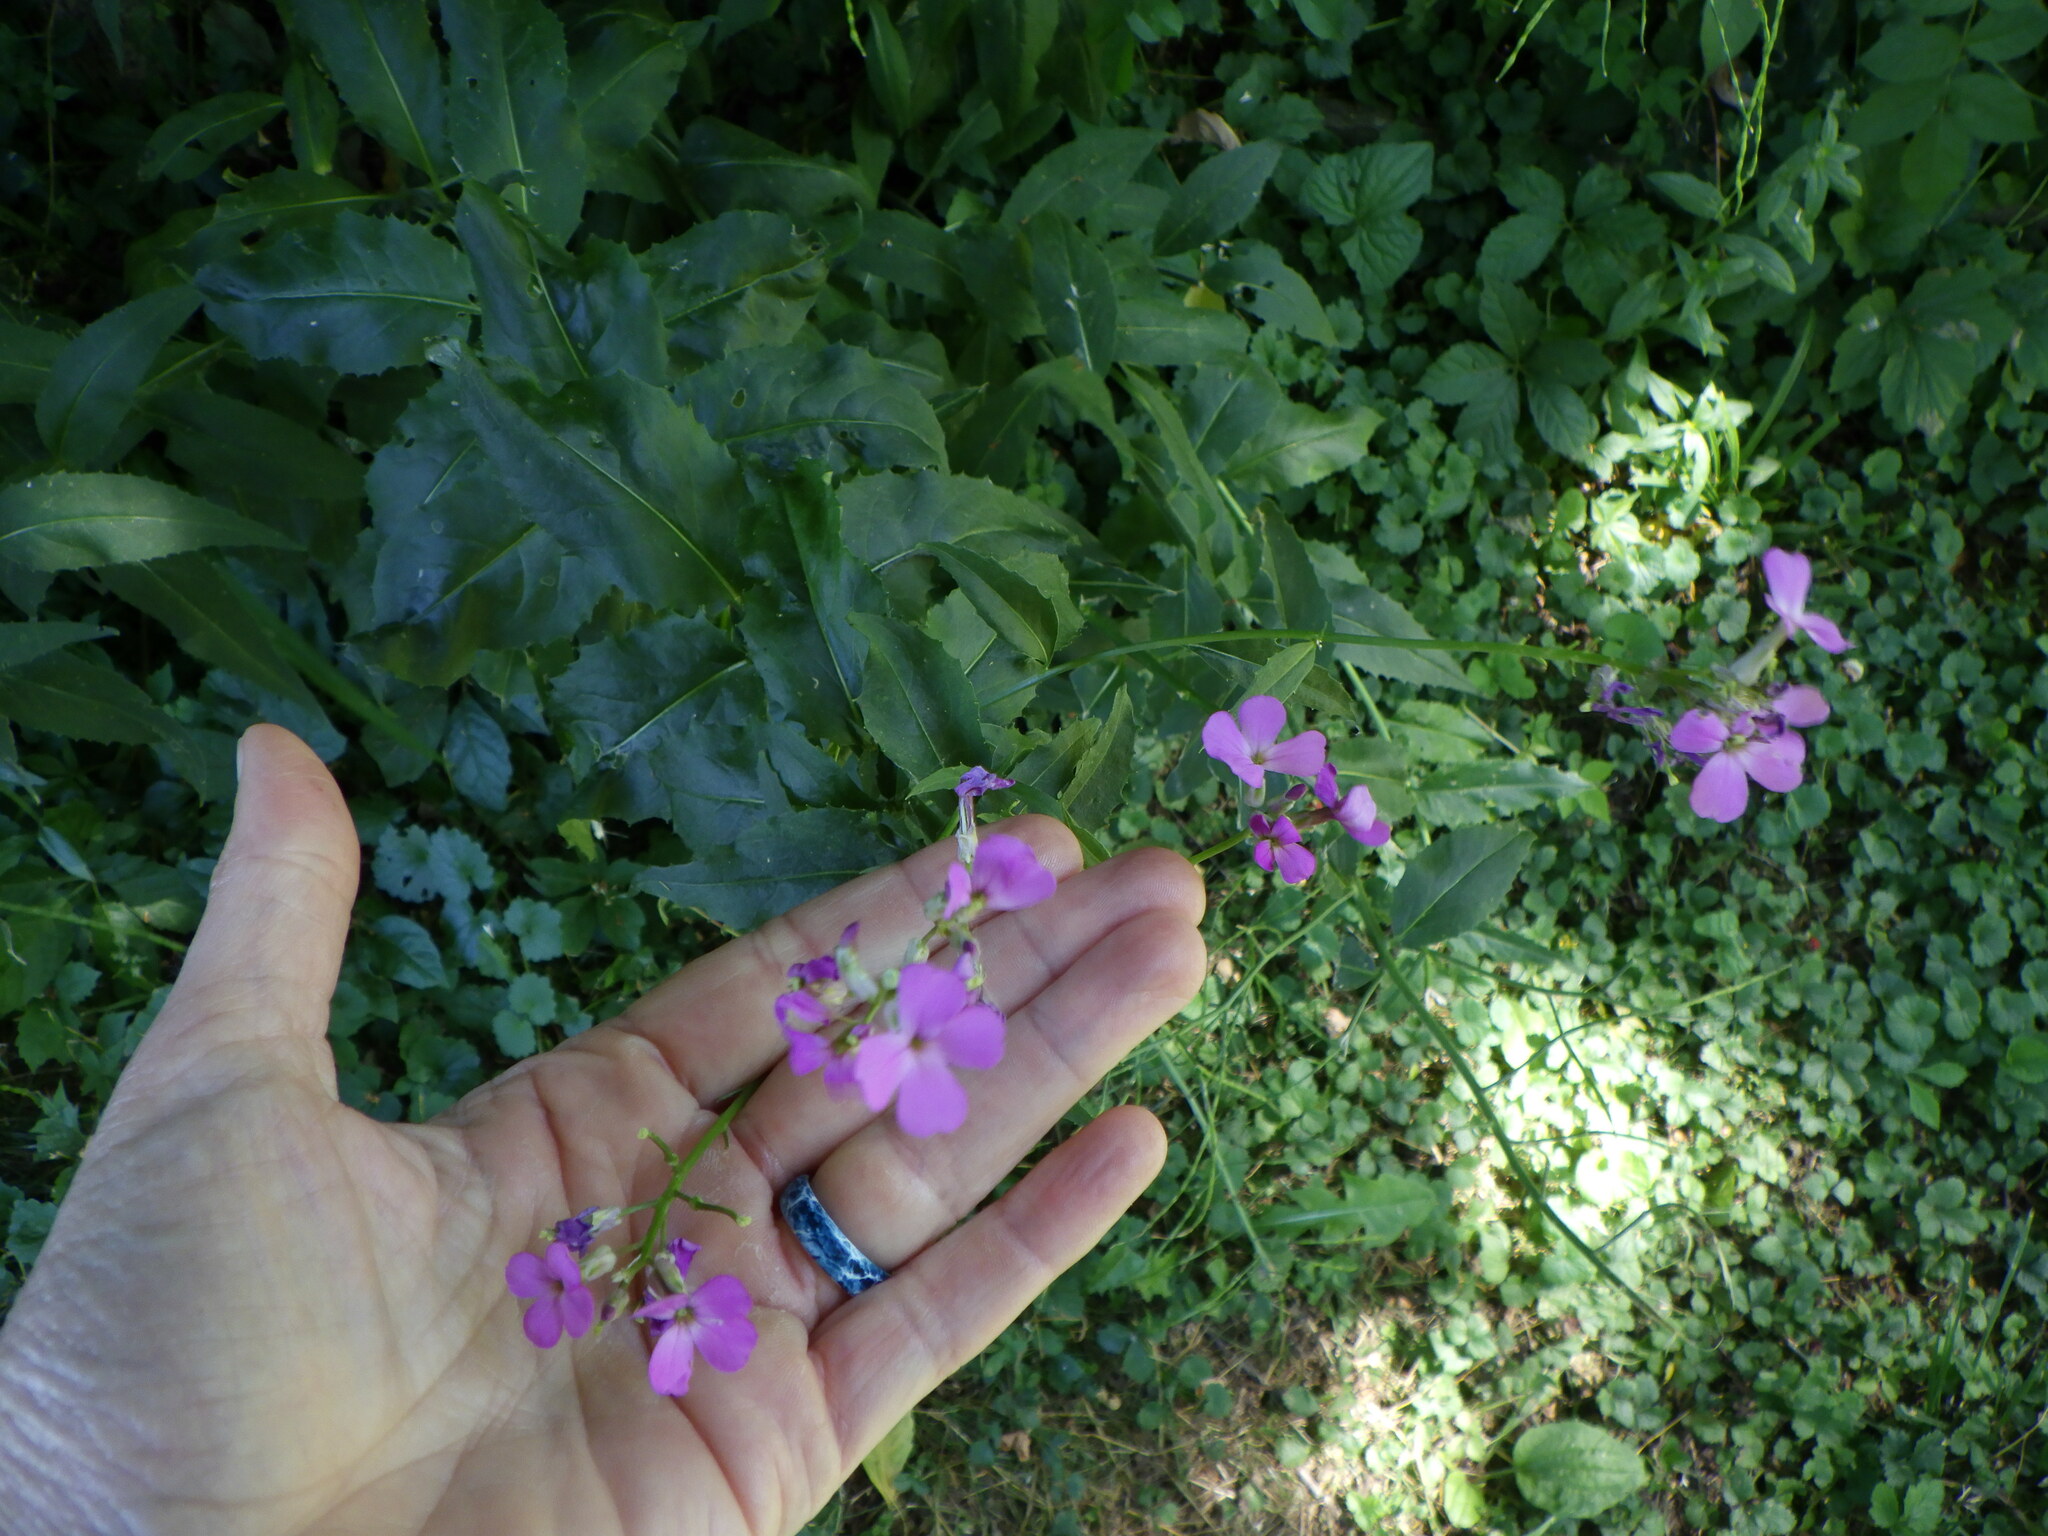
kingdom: Plantae
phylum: Tracheophyta
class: Magnoliopsida
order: Brassicales
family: Brassicaceae
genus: Hesperis
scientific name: Hesperis matronalis
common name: Dame's-violet
